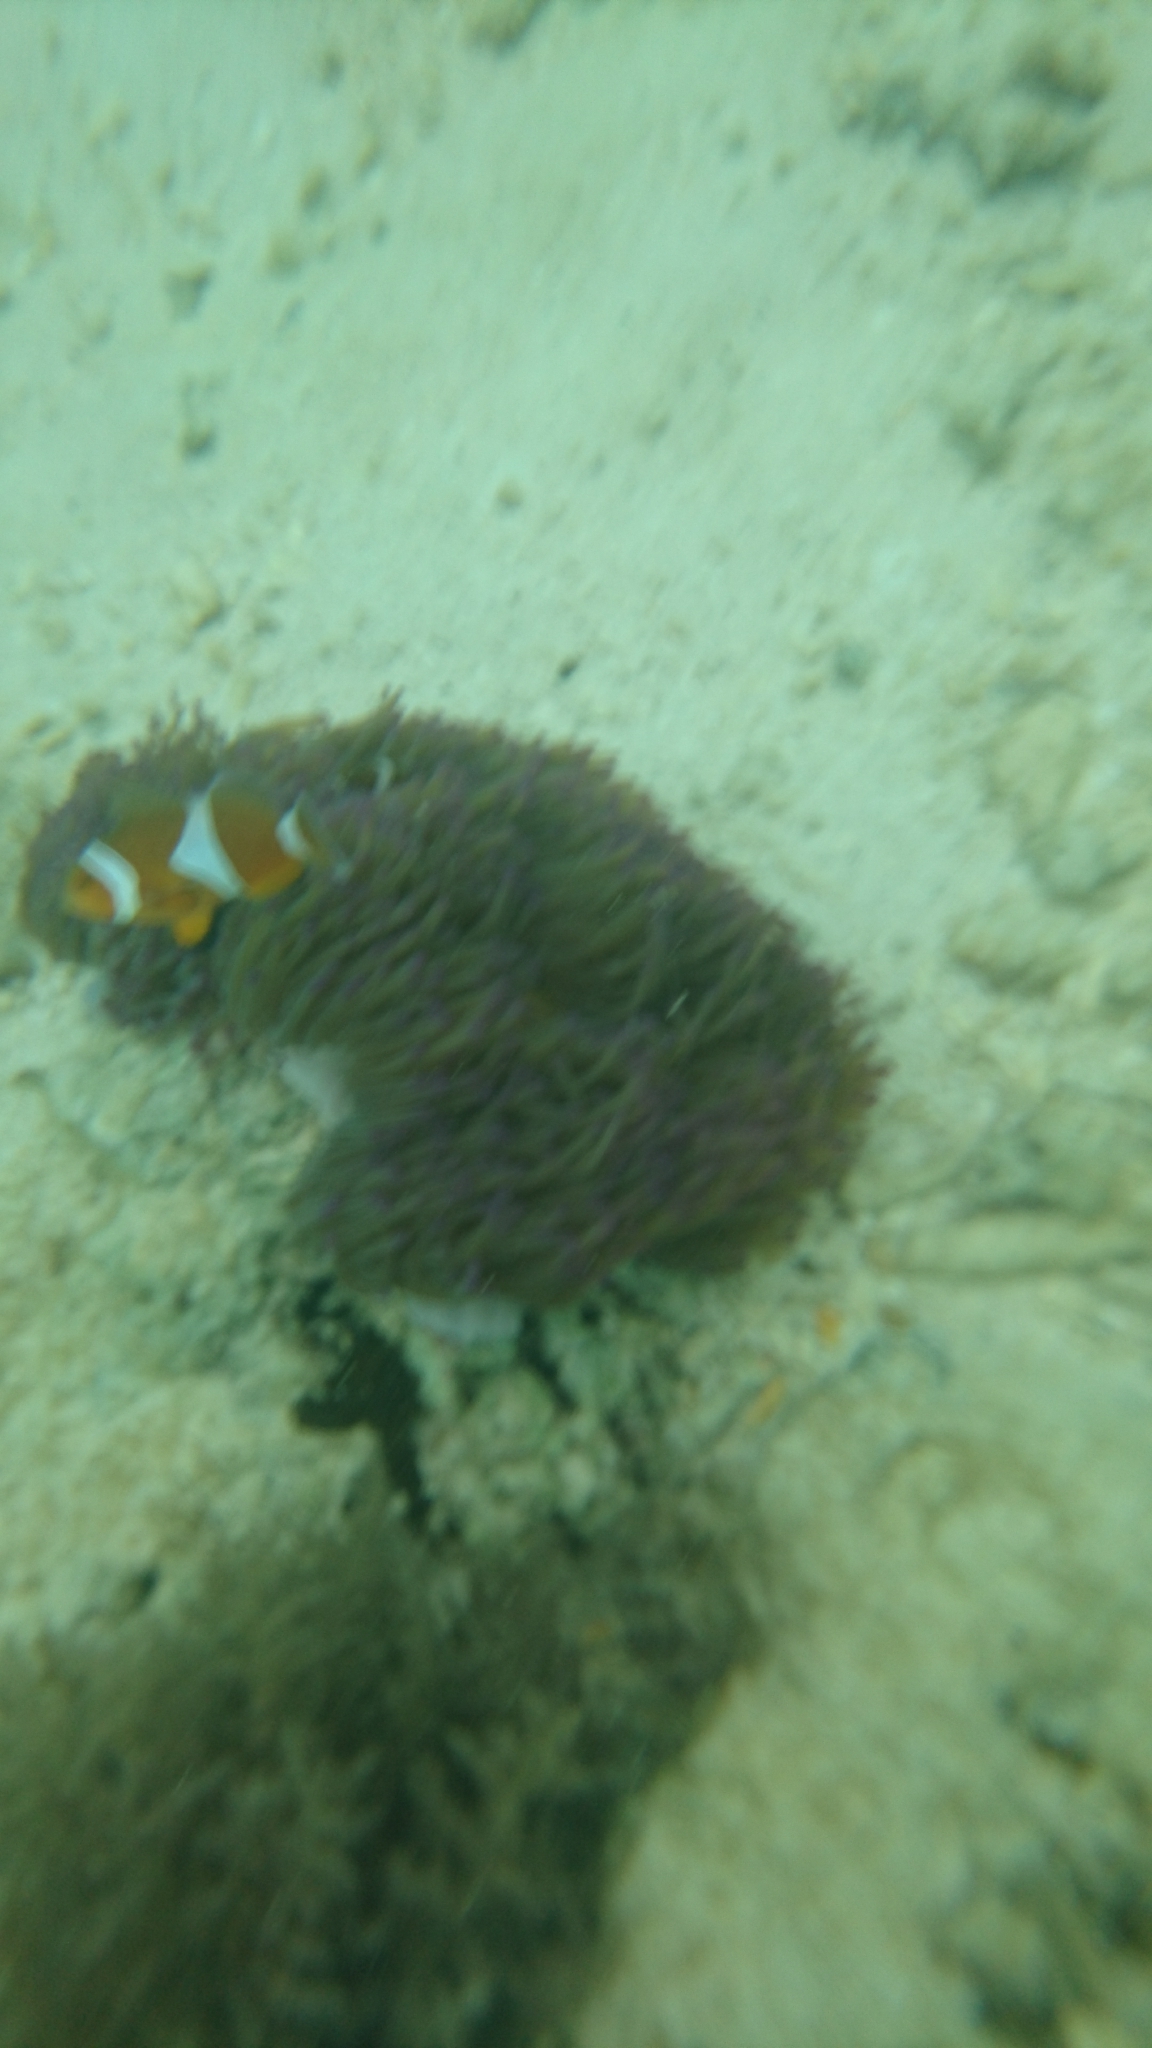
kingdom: Animalia
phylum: Chordata
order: Perciformes
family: Pomacentridae
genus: Amphiprion
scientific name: Amphiprion ocellaris
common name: Clown anemonefish
